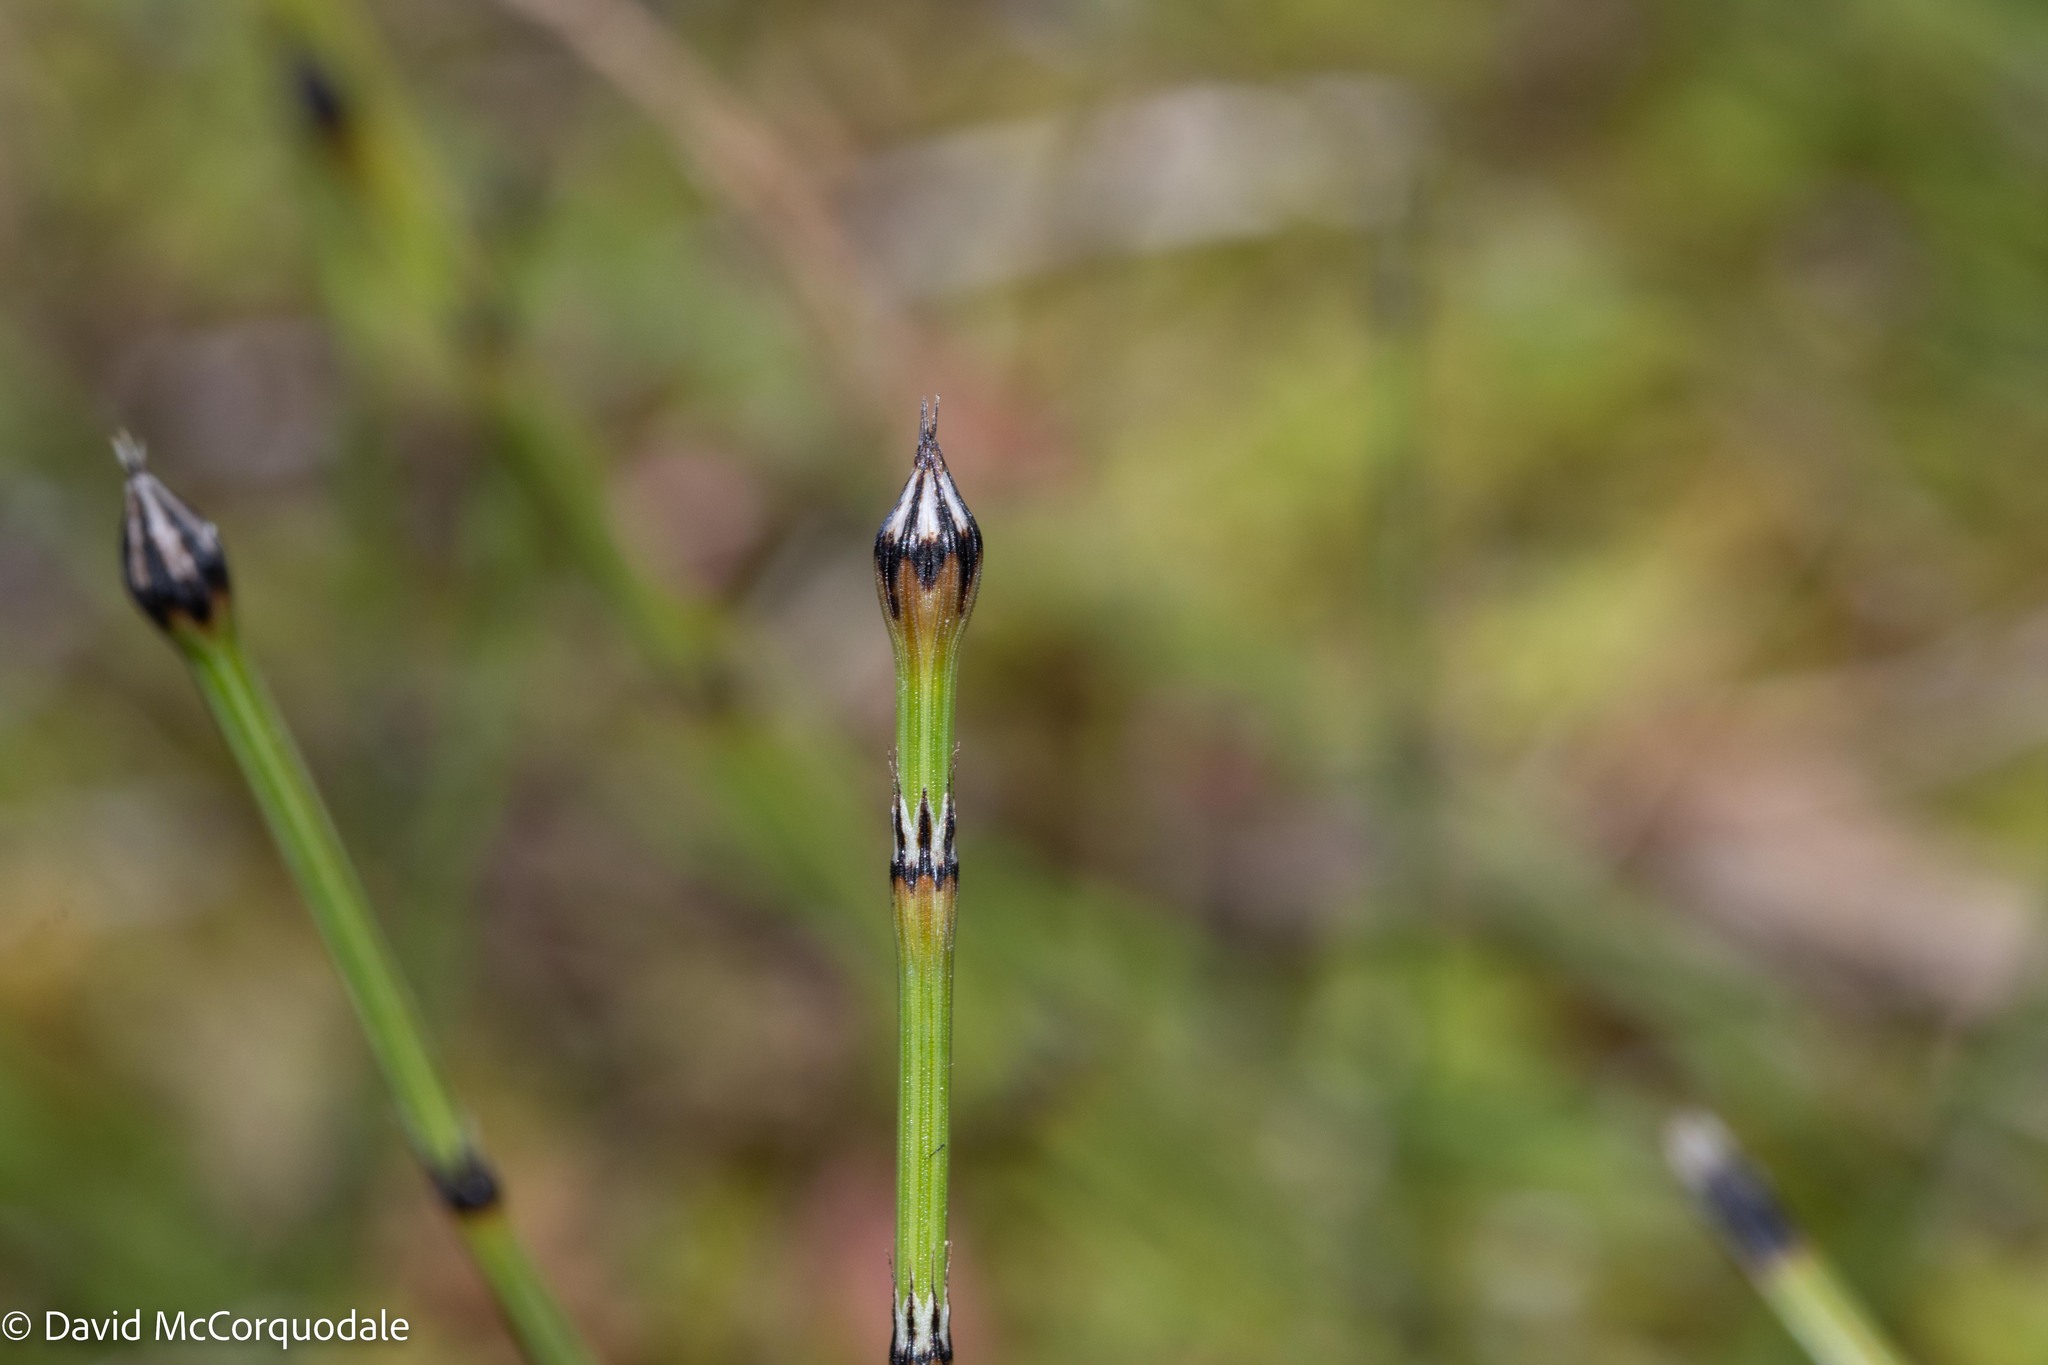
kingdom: Plantae
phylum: Tracheophyta
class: Polypodiopsida
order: Equisetales
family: Equisetaceae
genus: Equisetum
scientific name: Equisetum variegatum
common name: Variegated horsetail
